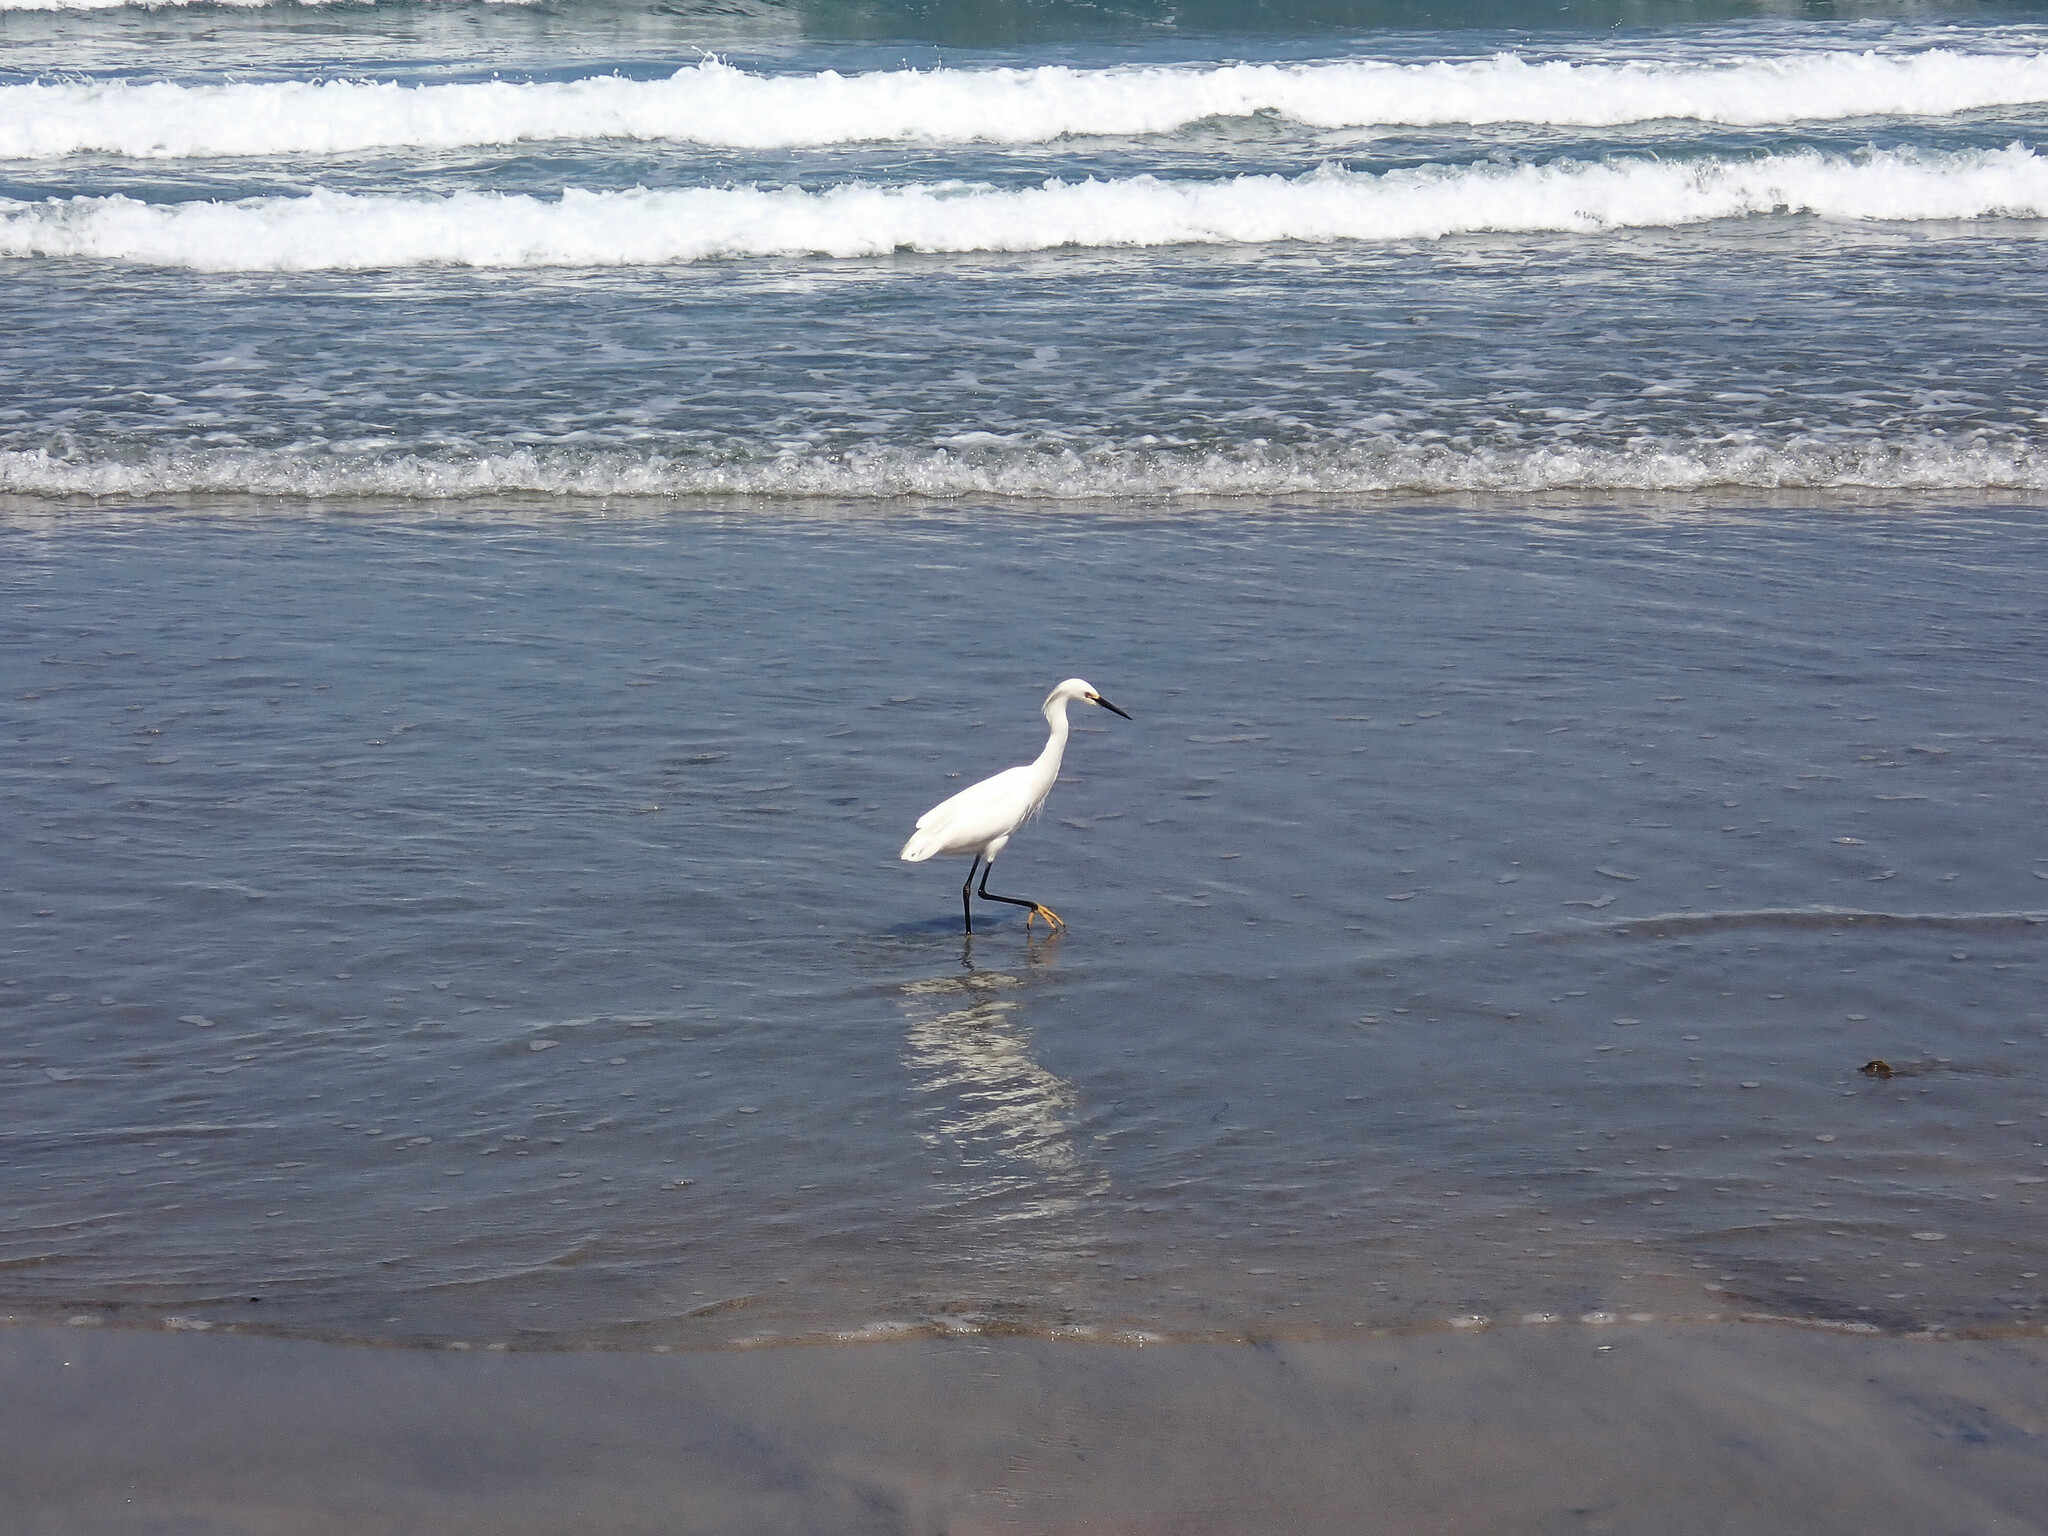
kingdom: Animalia
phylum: Chordata
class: Aves
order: Pelecaniformes
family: Ardeidae
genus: Egretta
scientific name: Egretta thula
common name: Snowy egret
